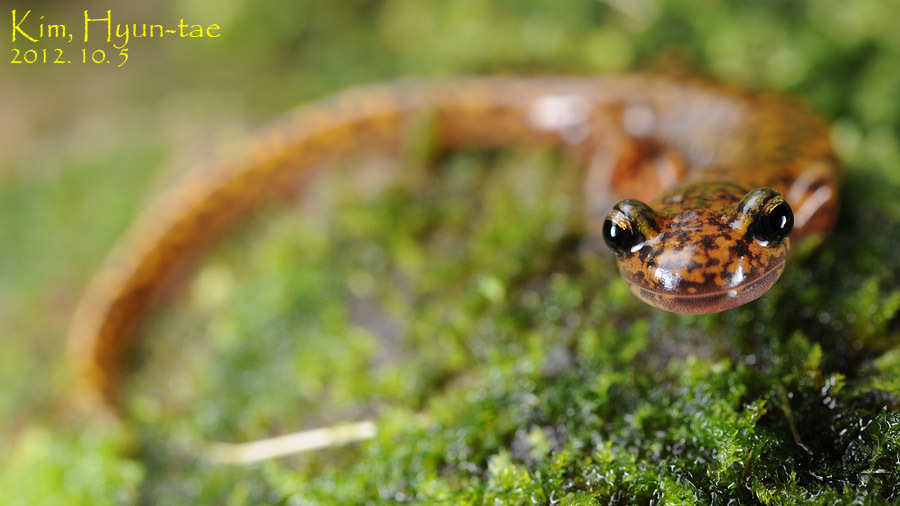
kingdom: Animalia
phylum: Chordata
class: Amphibia
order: Caudata
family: Hynobiidae
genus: Onychodactylus
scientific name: Onychodactylus koreanus
